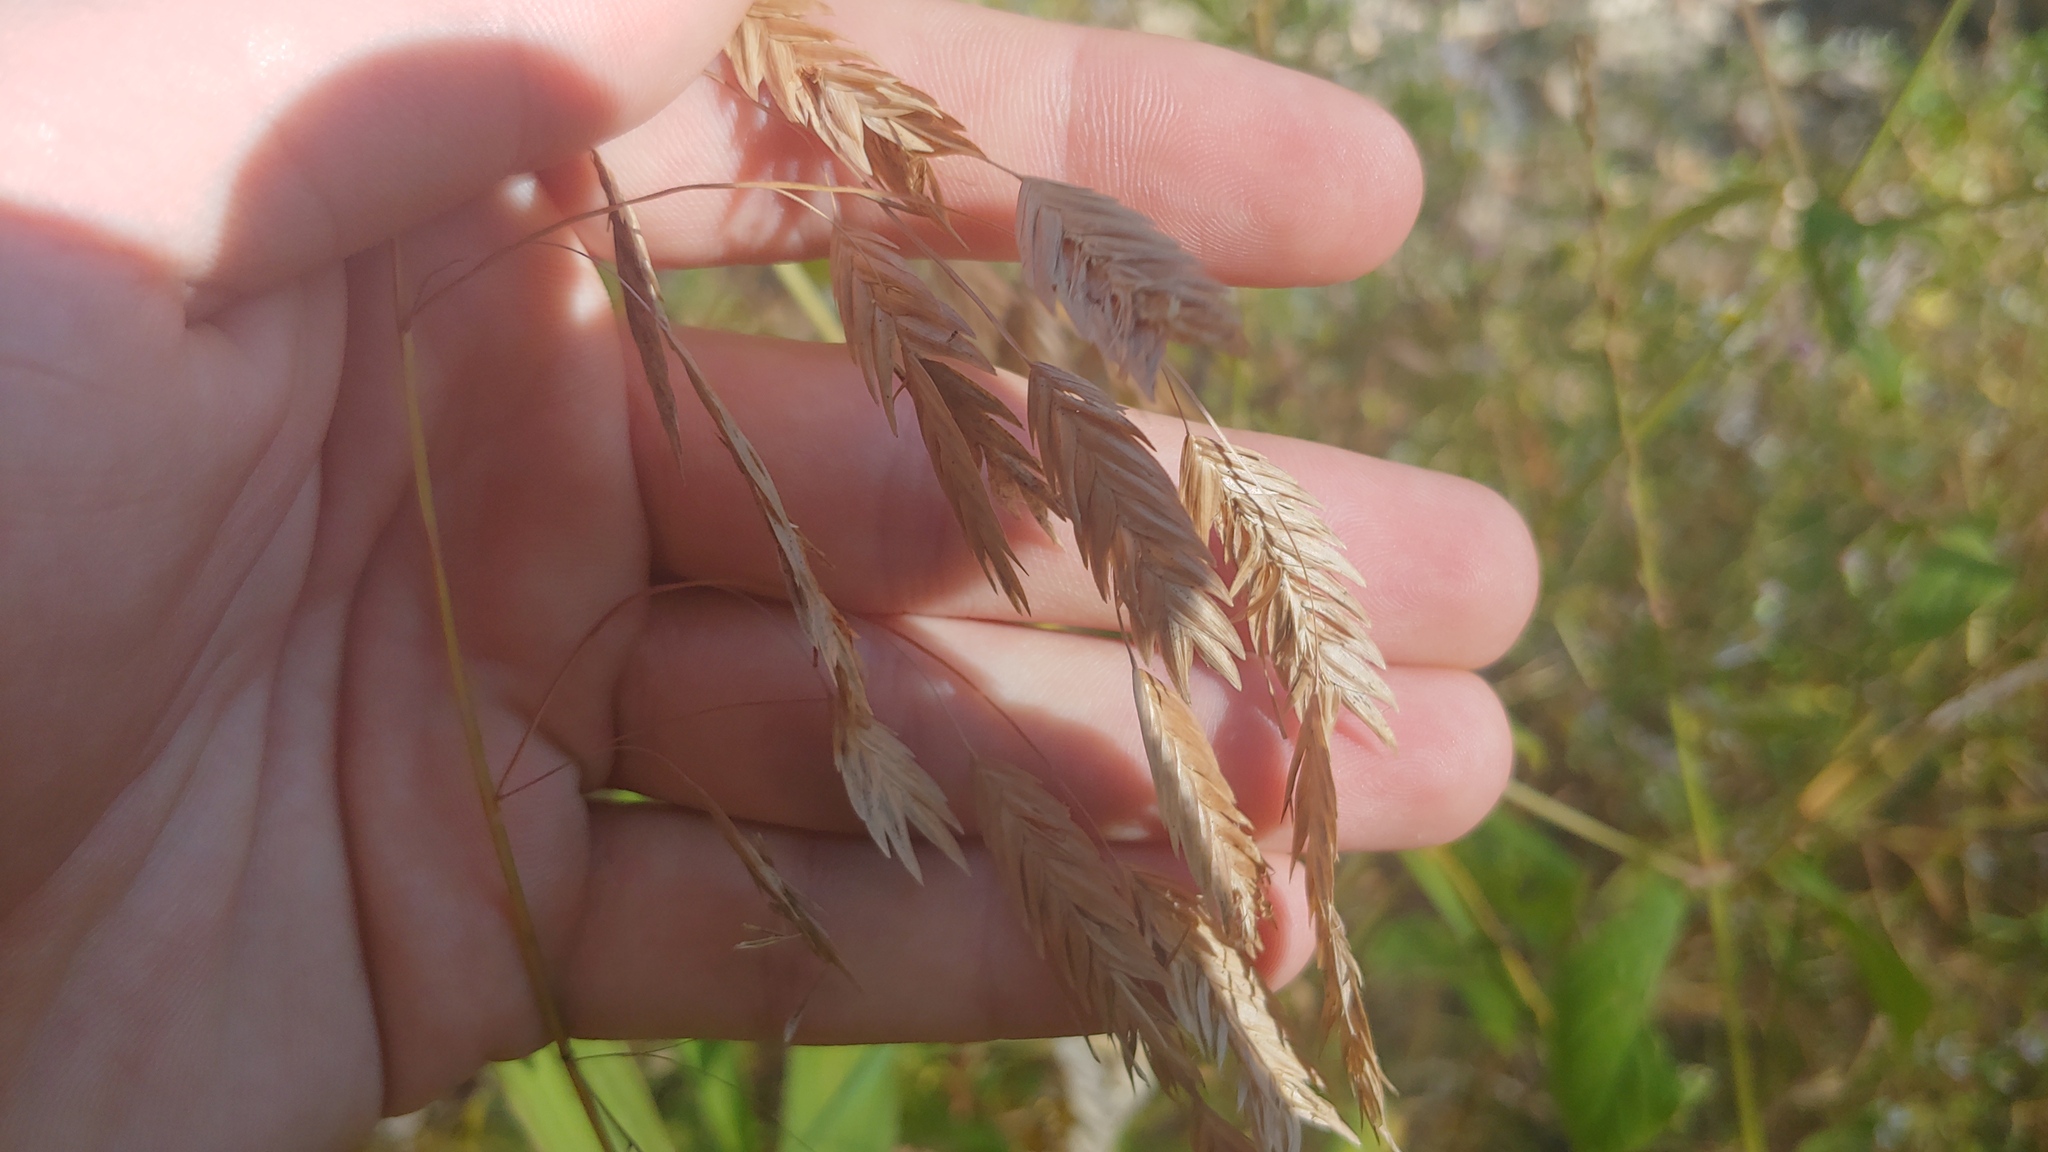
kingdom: Plantae
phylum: Tracheophyta
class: Liliopsida
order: Poales
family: Poaceae
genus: Chasmanthium
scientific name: Chasmanthium latifolium
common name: Broad-leaved chasmanthium
